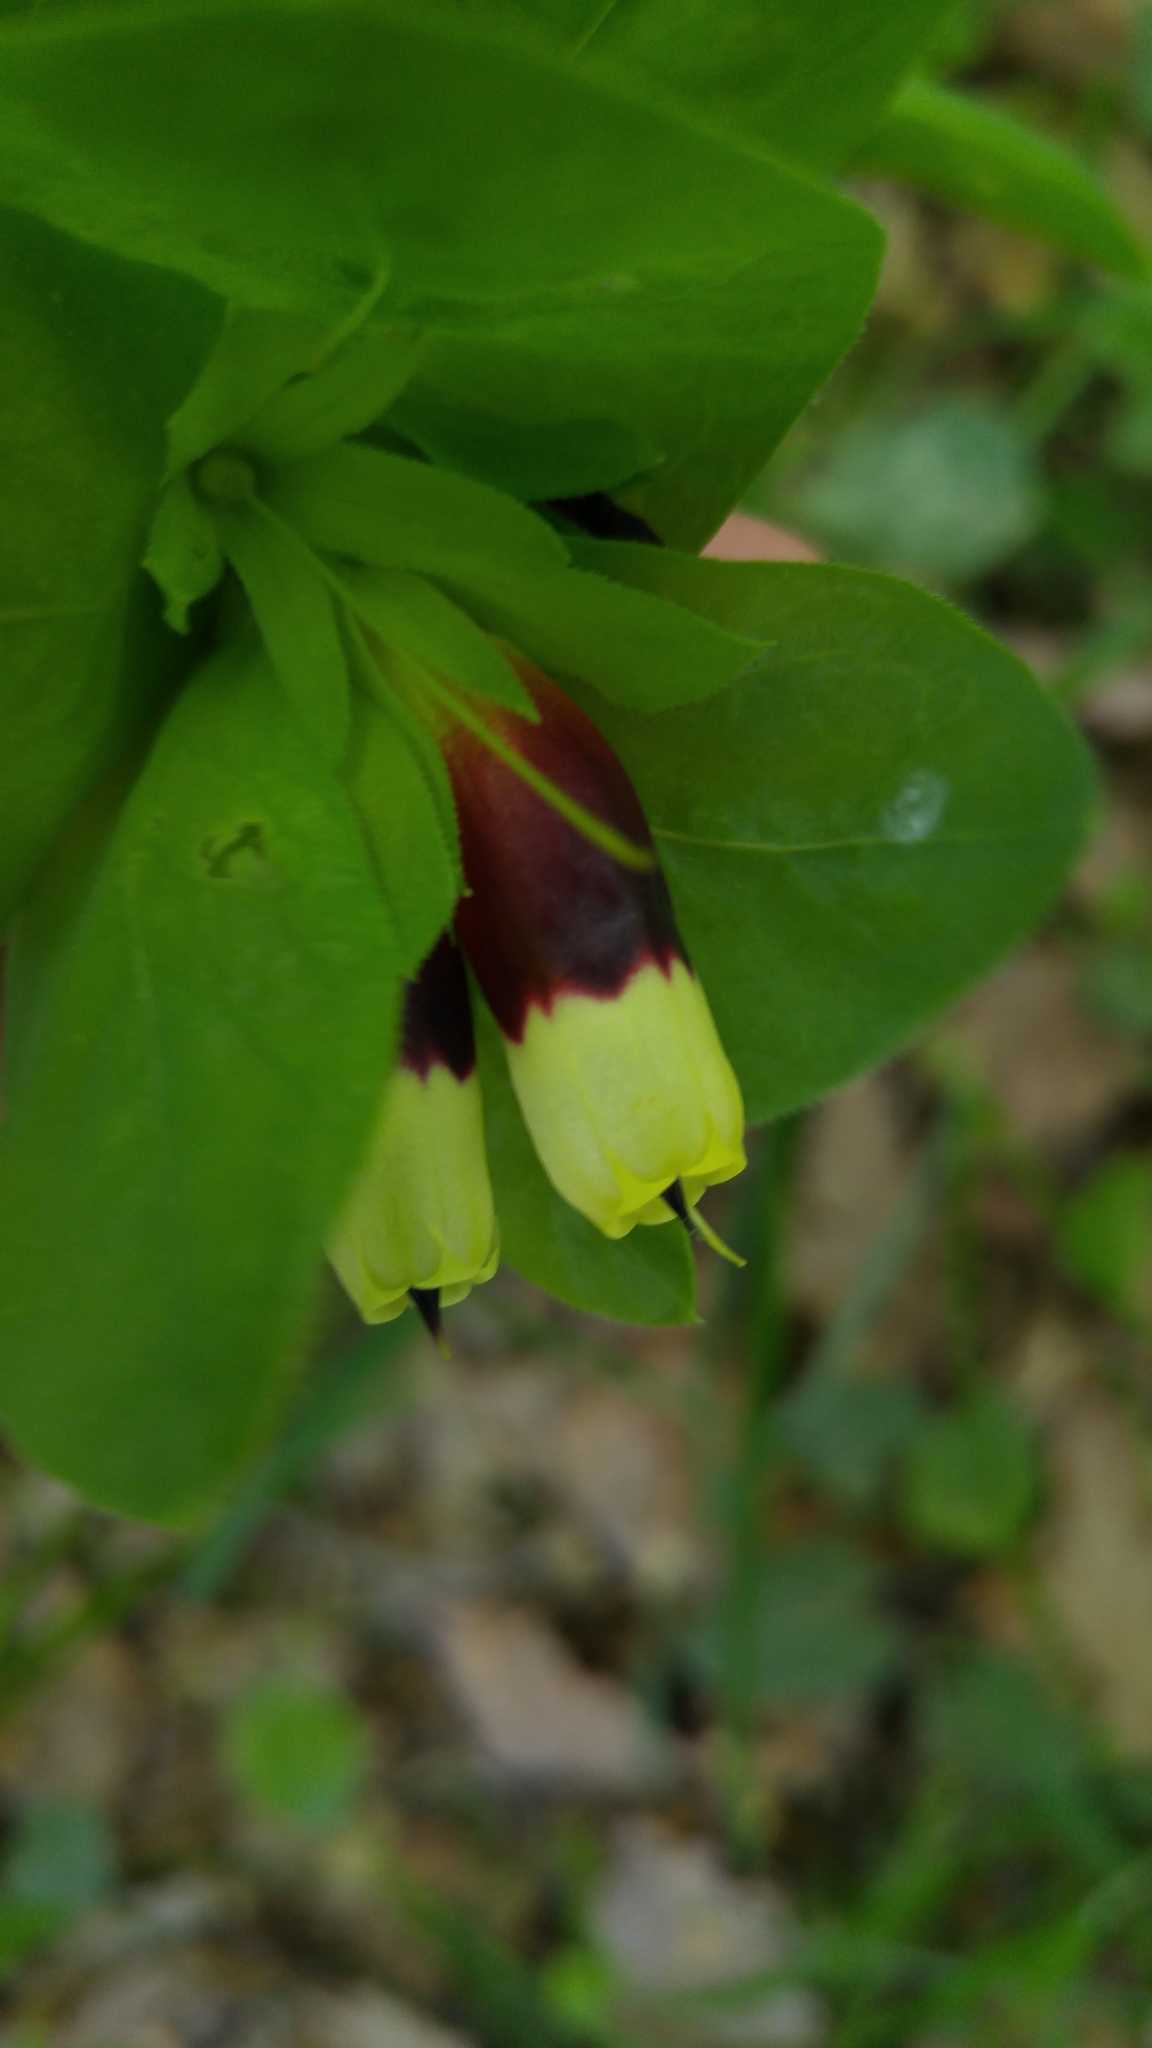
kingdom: Plantae
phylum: Tracheophyta
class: Magnoliopsida
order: Boraginales
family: Boraginaceae
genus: Cerinthe
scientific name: Cerinthe major
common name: Greater honeywort
